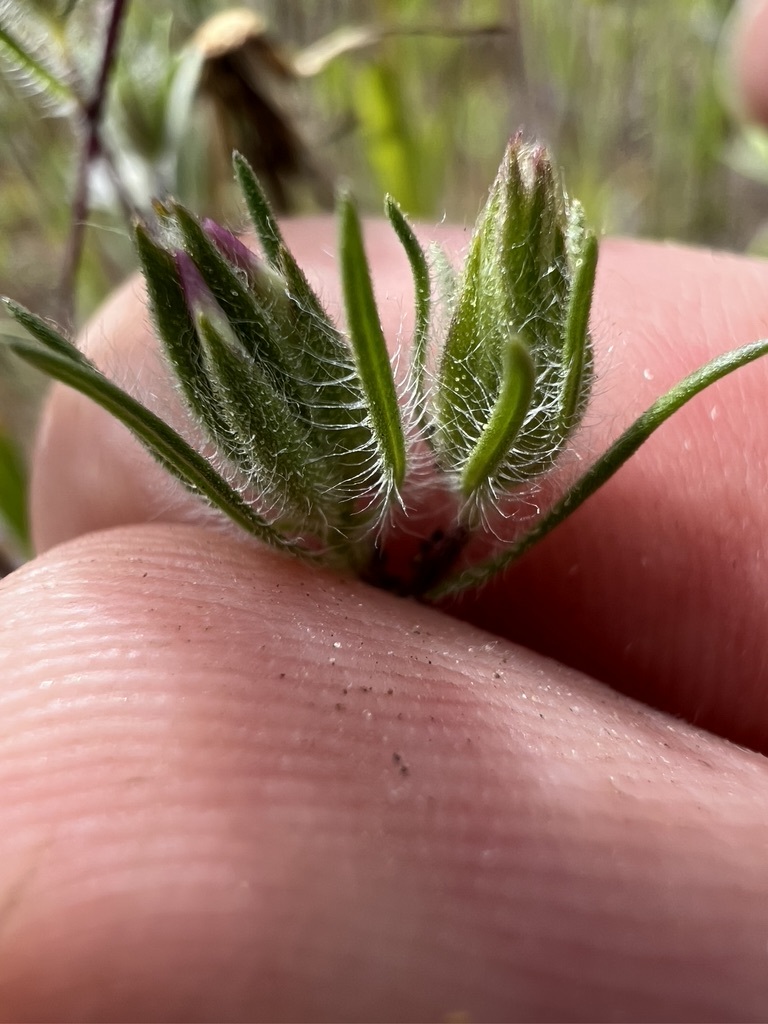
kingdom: Plantae
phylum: Tracheophyta
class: Magnoliopsida
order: Asterales
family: Asteraceae
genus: Osmadenia
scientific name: Osmadenia tenella
